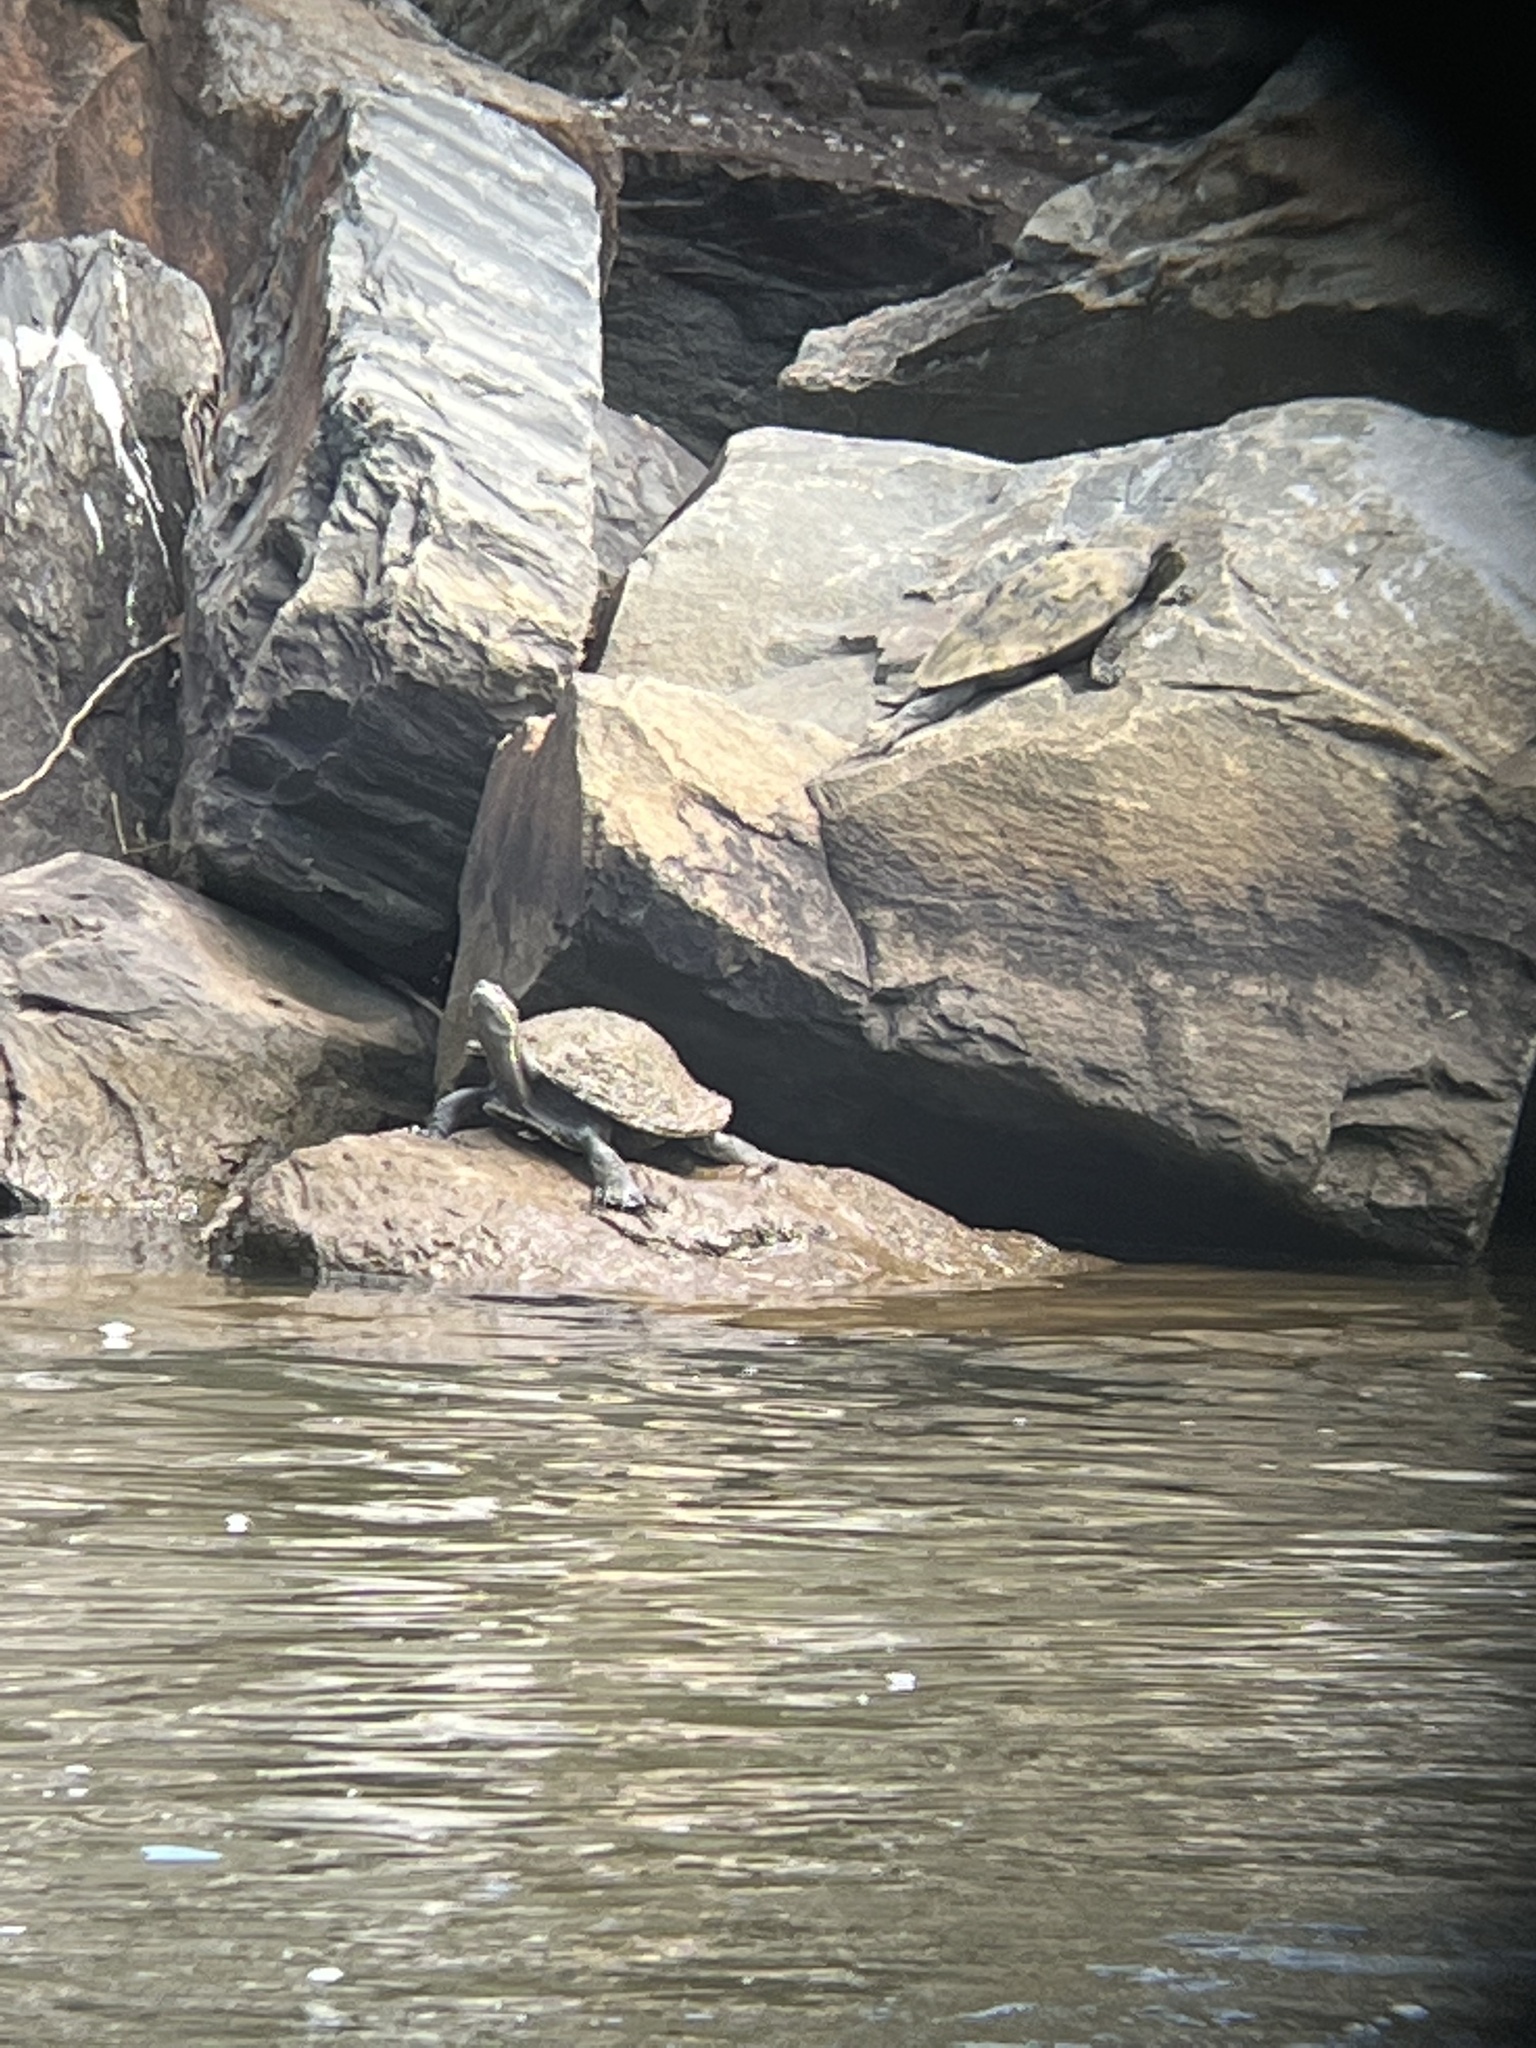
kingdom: Animalia
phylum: Chordata
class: Testudines
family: Chelidae
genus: Emydura
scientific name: Emydura macquarii
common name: Murray river turtle
